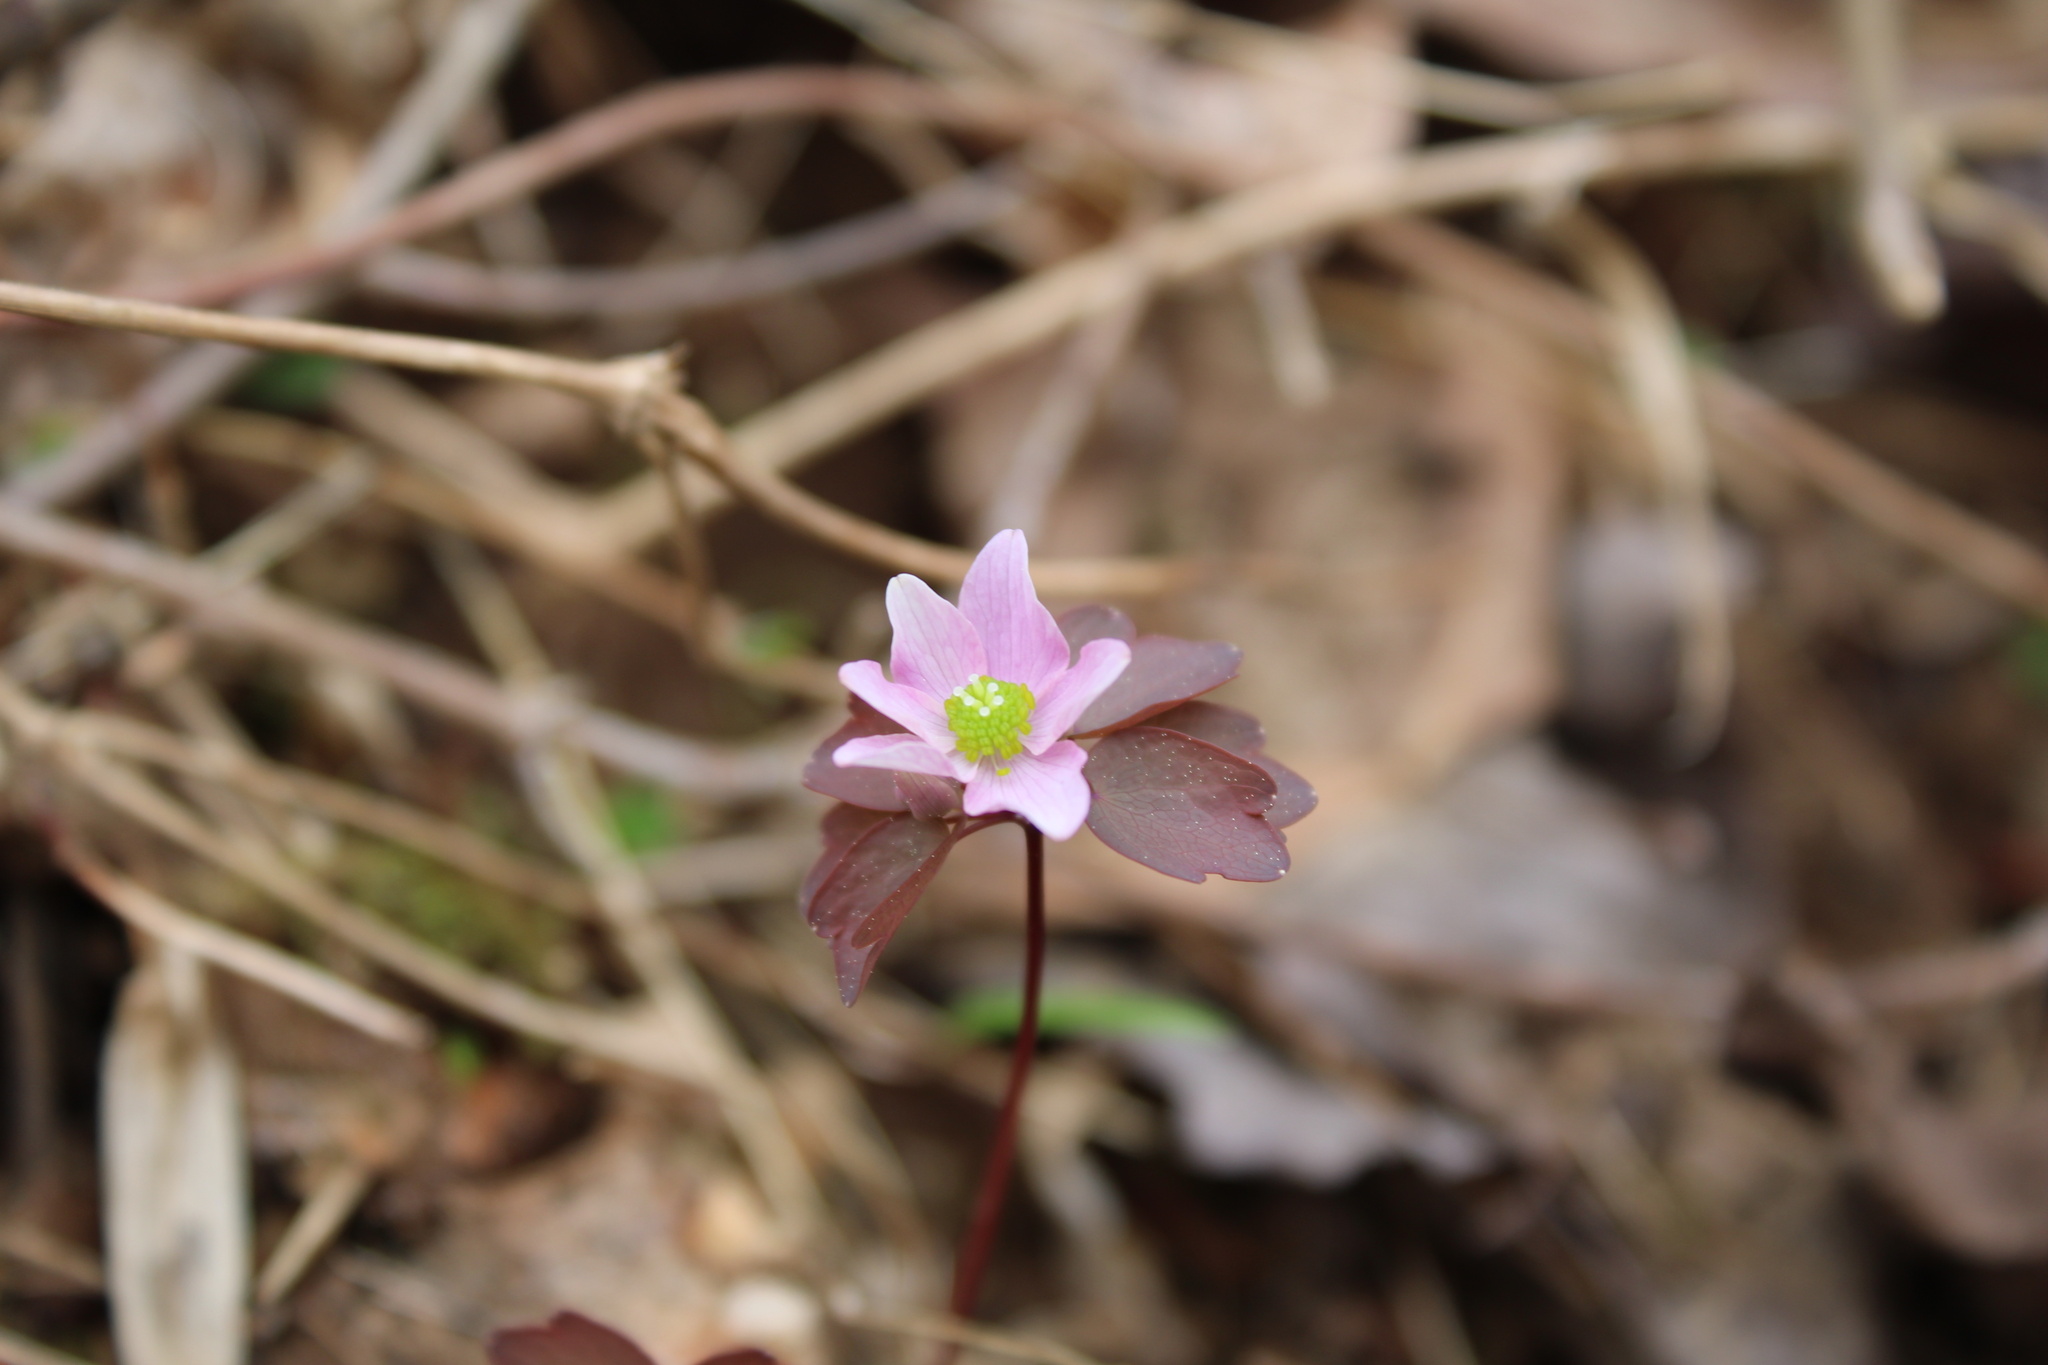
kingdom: Plantae
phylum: Tracheophyta
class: Magnoliopsida
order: Ranunculales
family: Ranunculaceae
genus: Thalictrum
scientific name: Thalictrum thalictroides
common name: Rue-anemone
